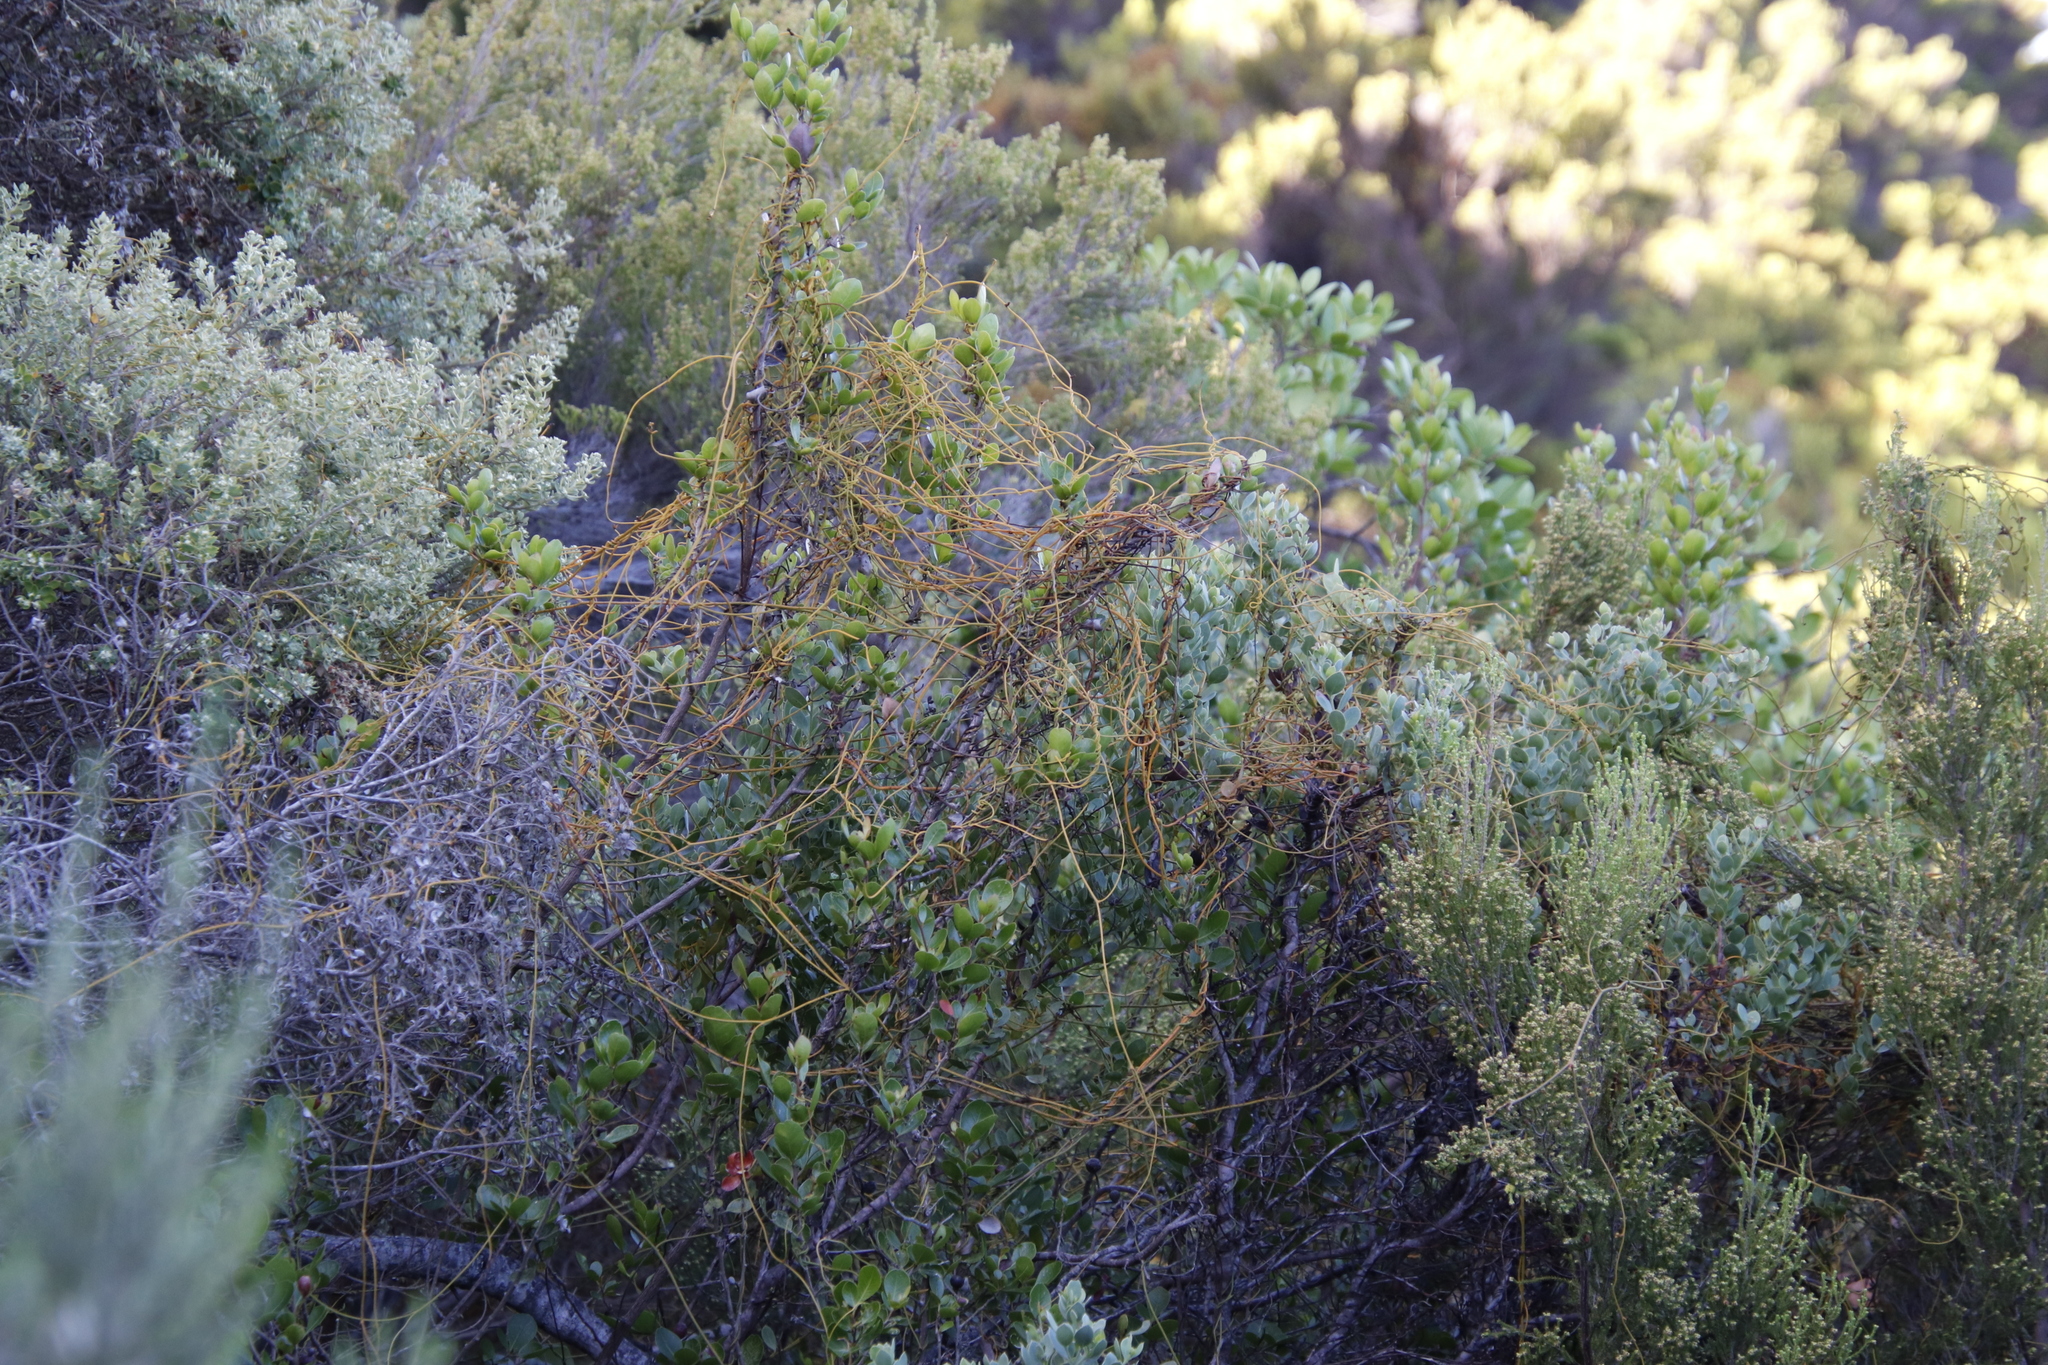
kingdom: Plantae
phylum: Tracheophyta
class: Magnoliopsida
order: Laurales
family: Lauraceae
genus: Cassytha
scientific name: Cassytha ciliolata
